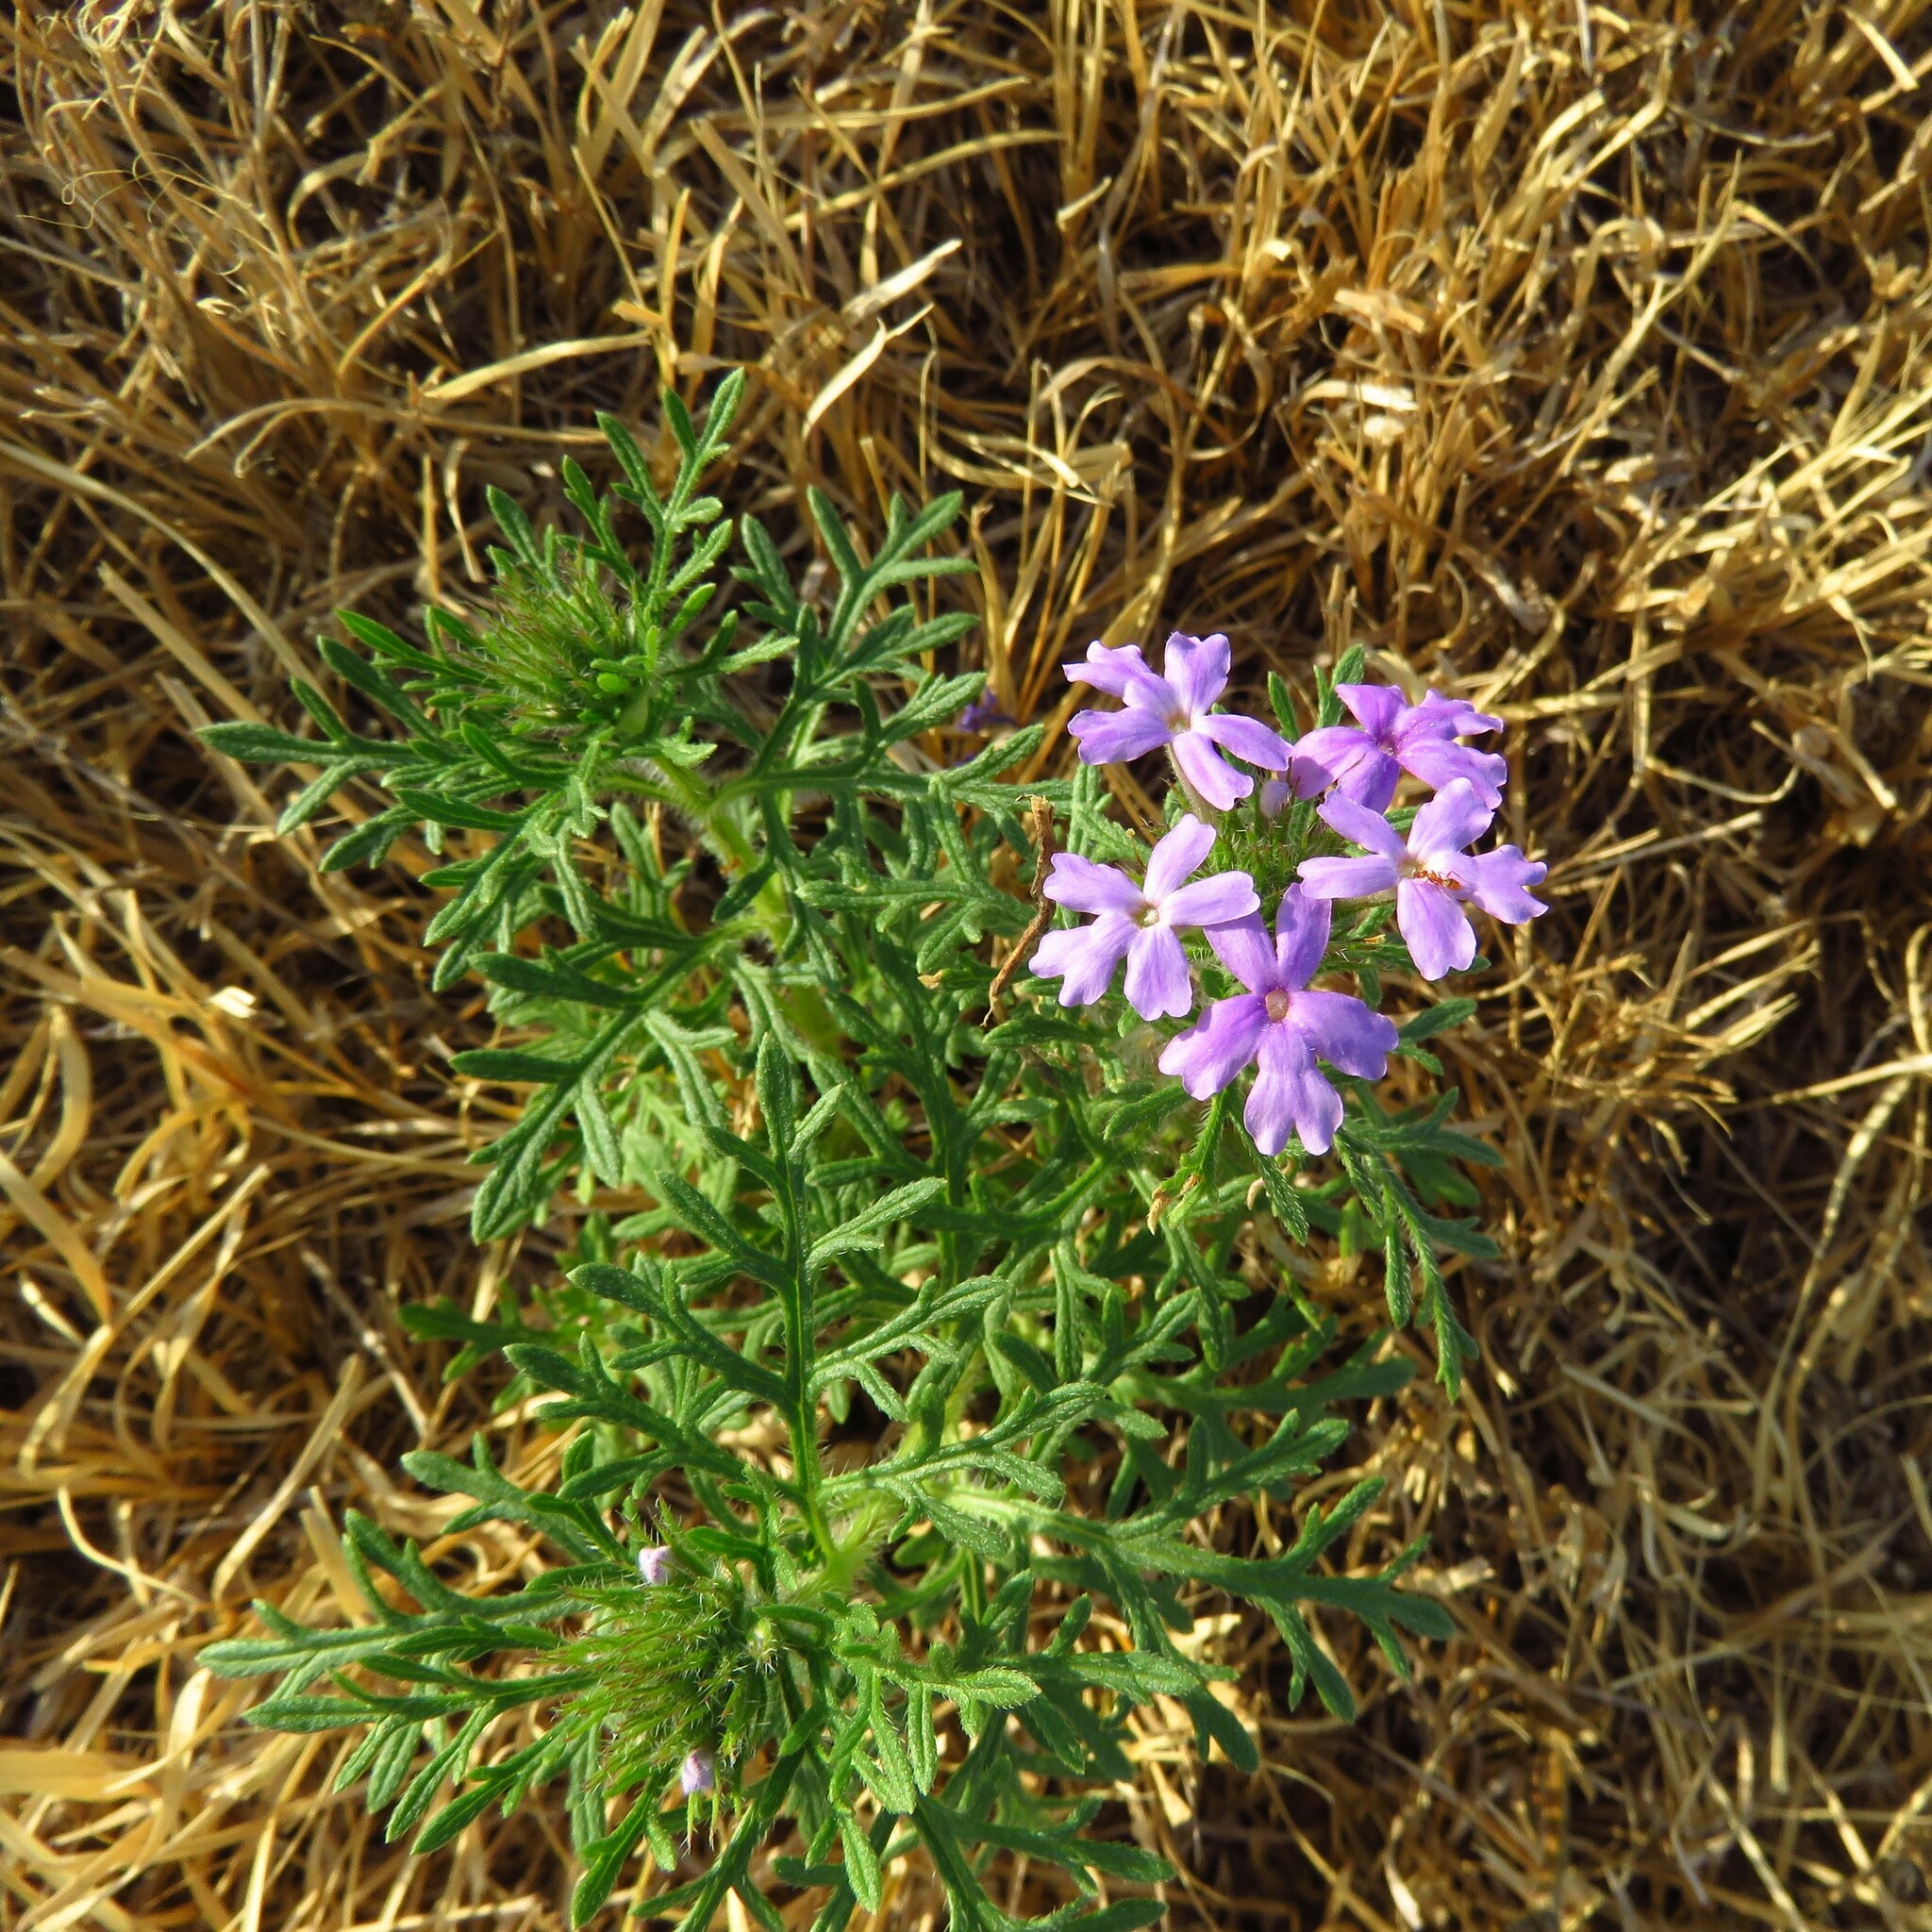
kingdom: Plantae
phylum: Tracheophyta
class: Magnoliopsida
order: Lamiales
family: Verbenaceae
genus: Verbena
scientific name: Verbena bipinnatifida
